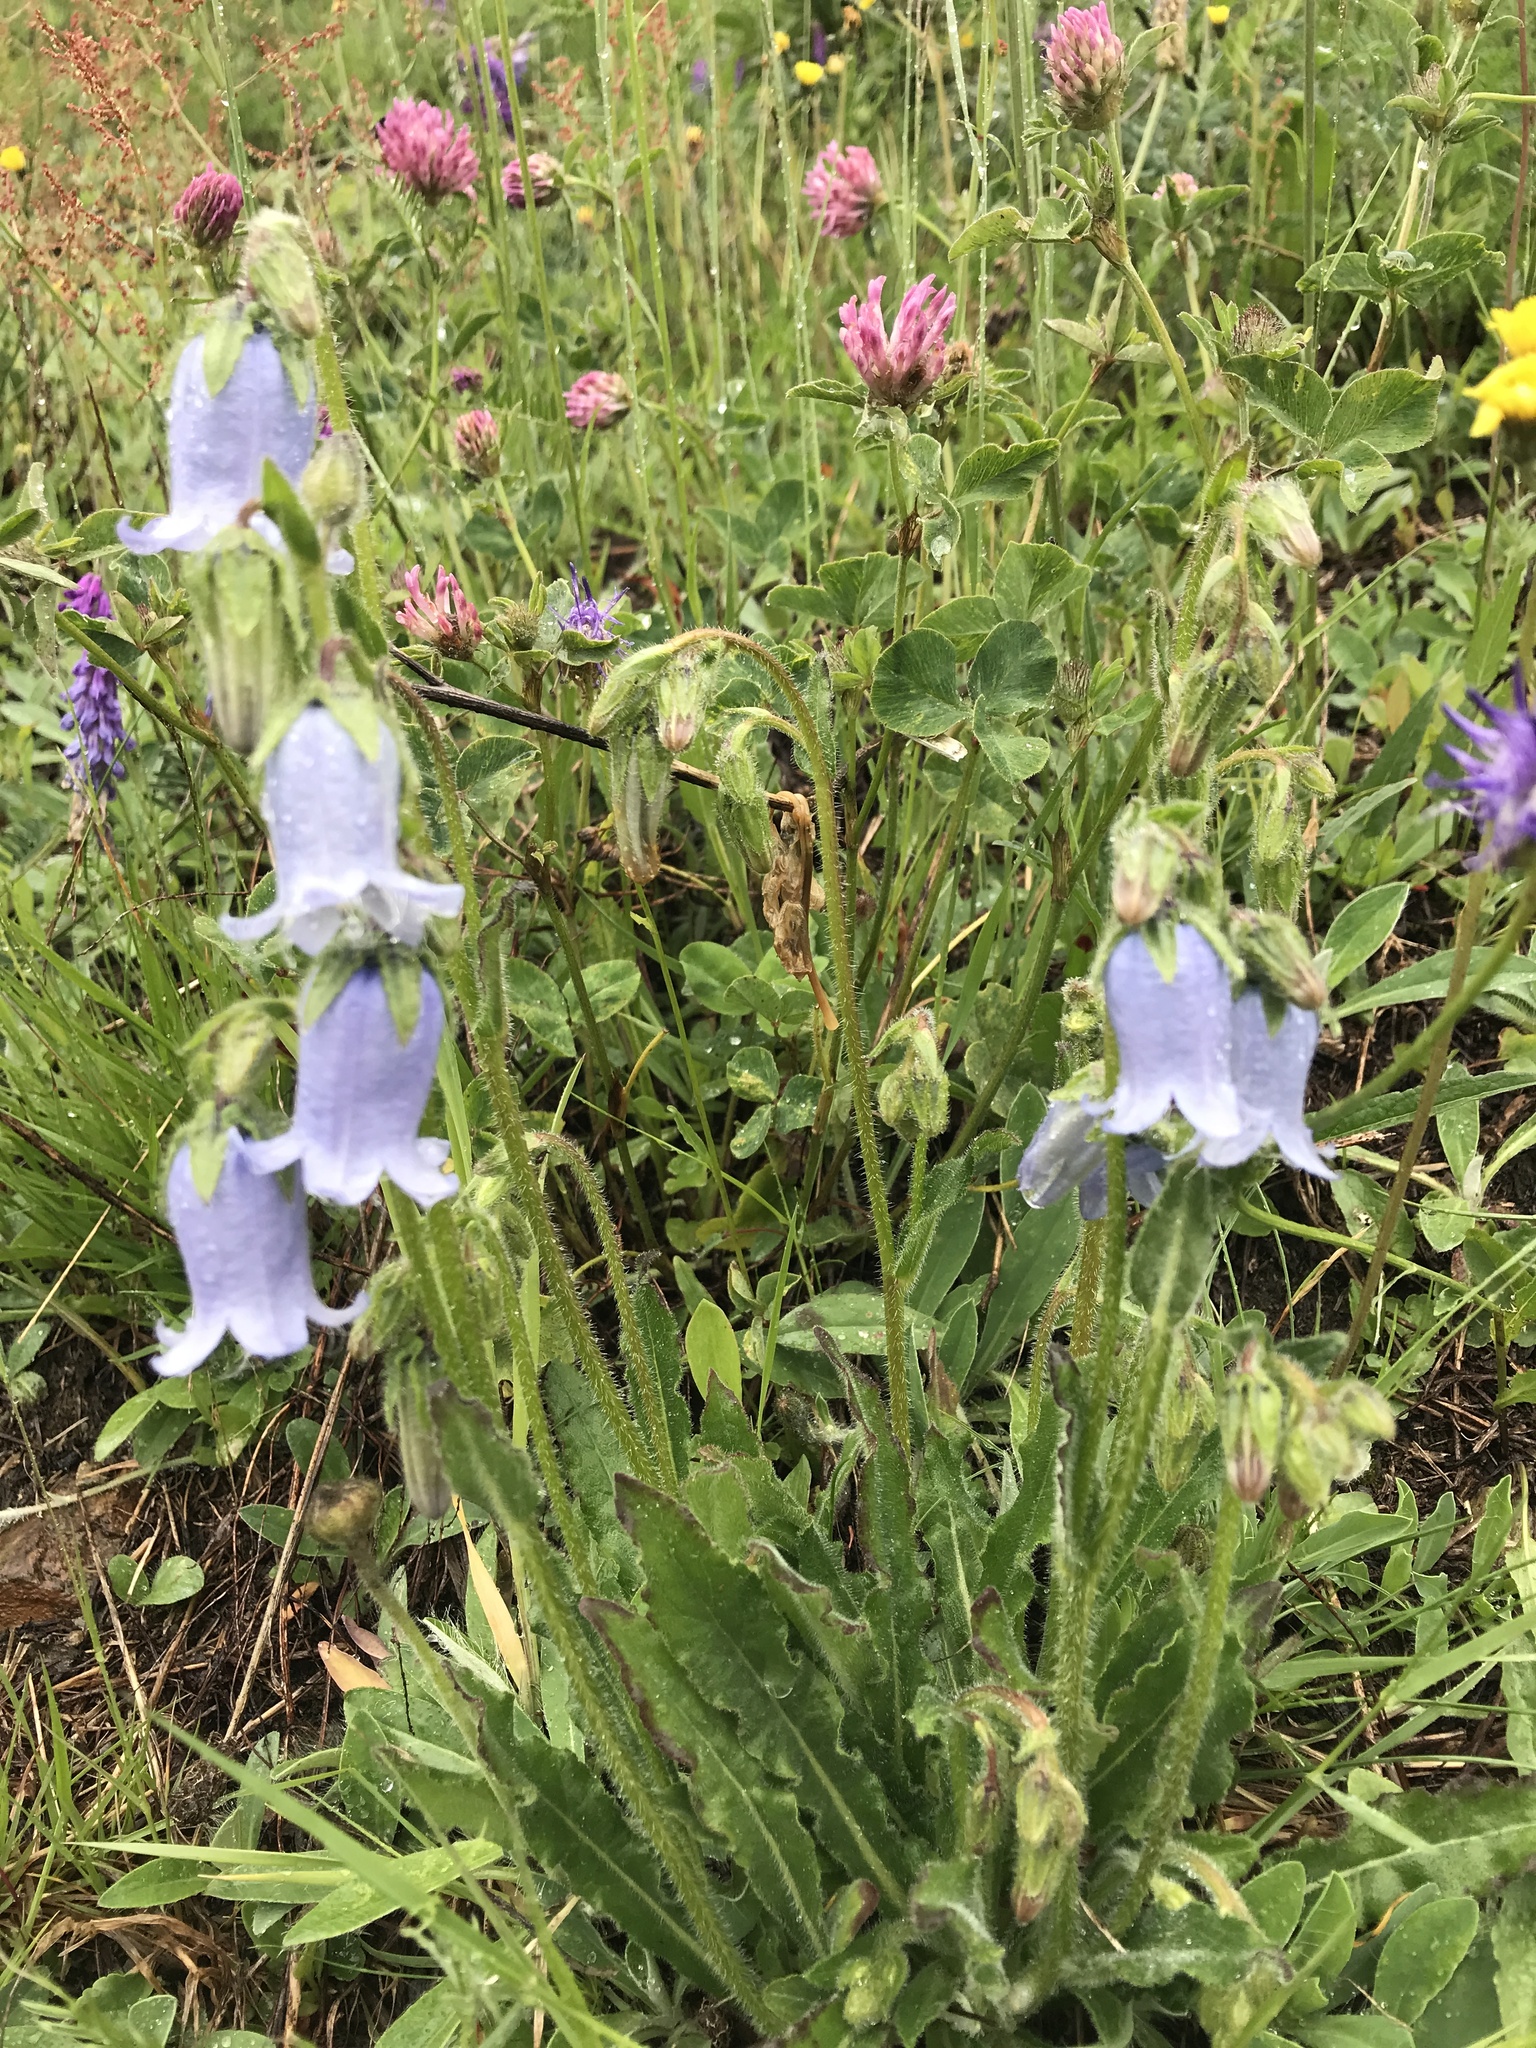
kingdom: Plantae
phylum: Tracheophyta
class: Magnoliopsida
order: Asterales
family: Campanulaceae
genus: Campanula
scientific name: Campanula barbata
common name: Bearded bellflower
